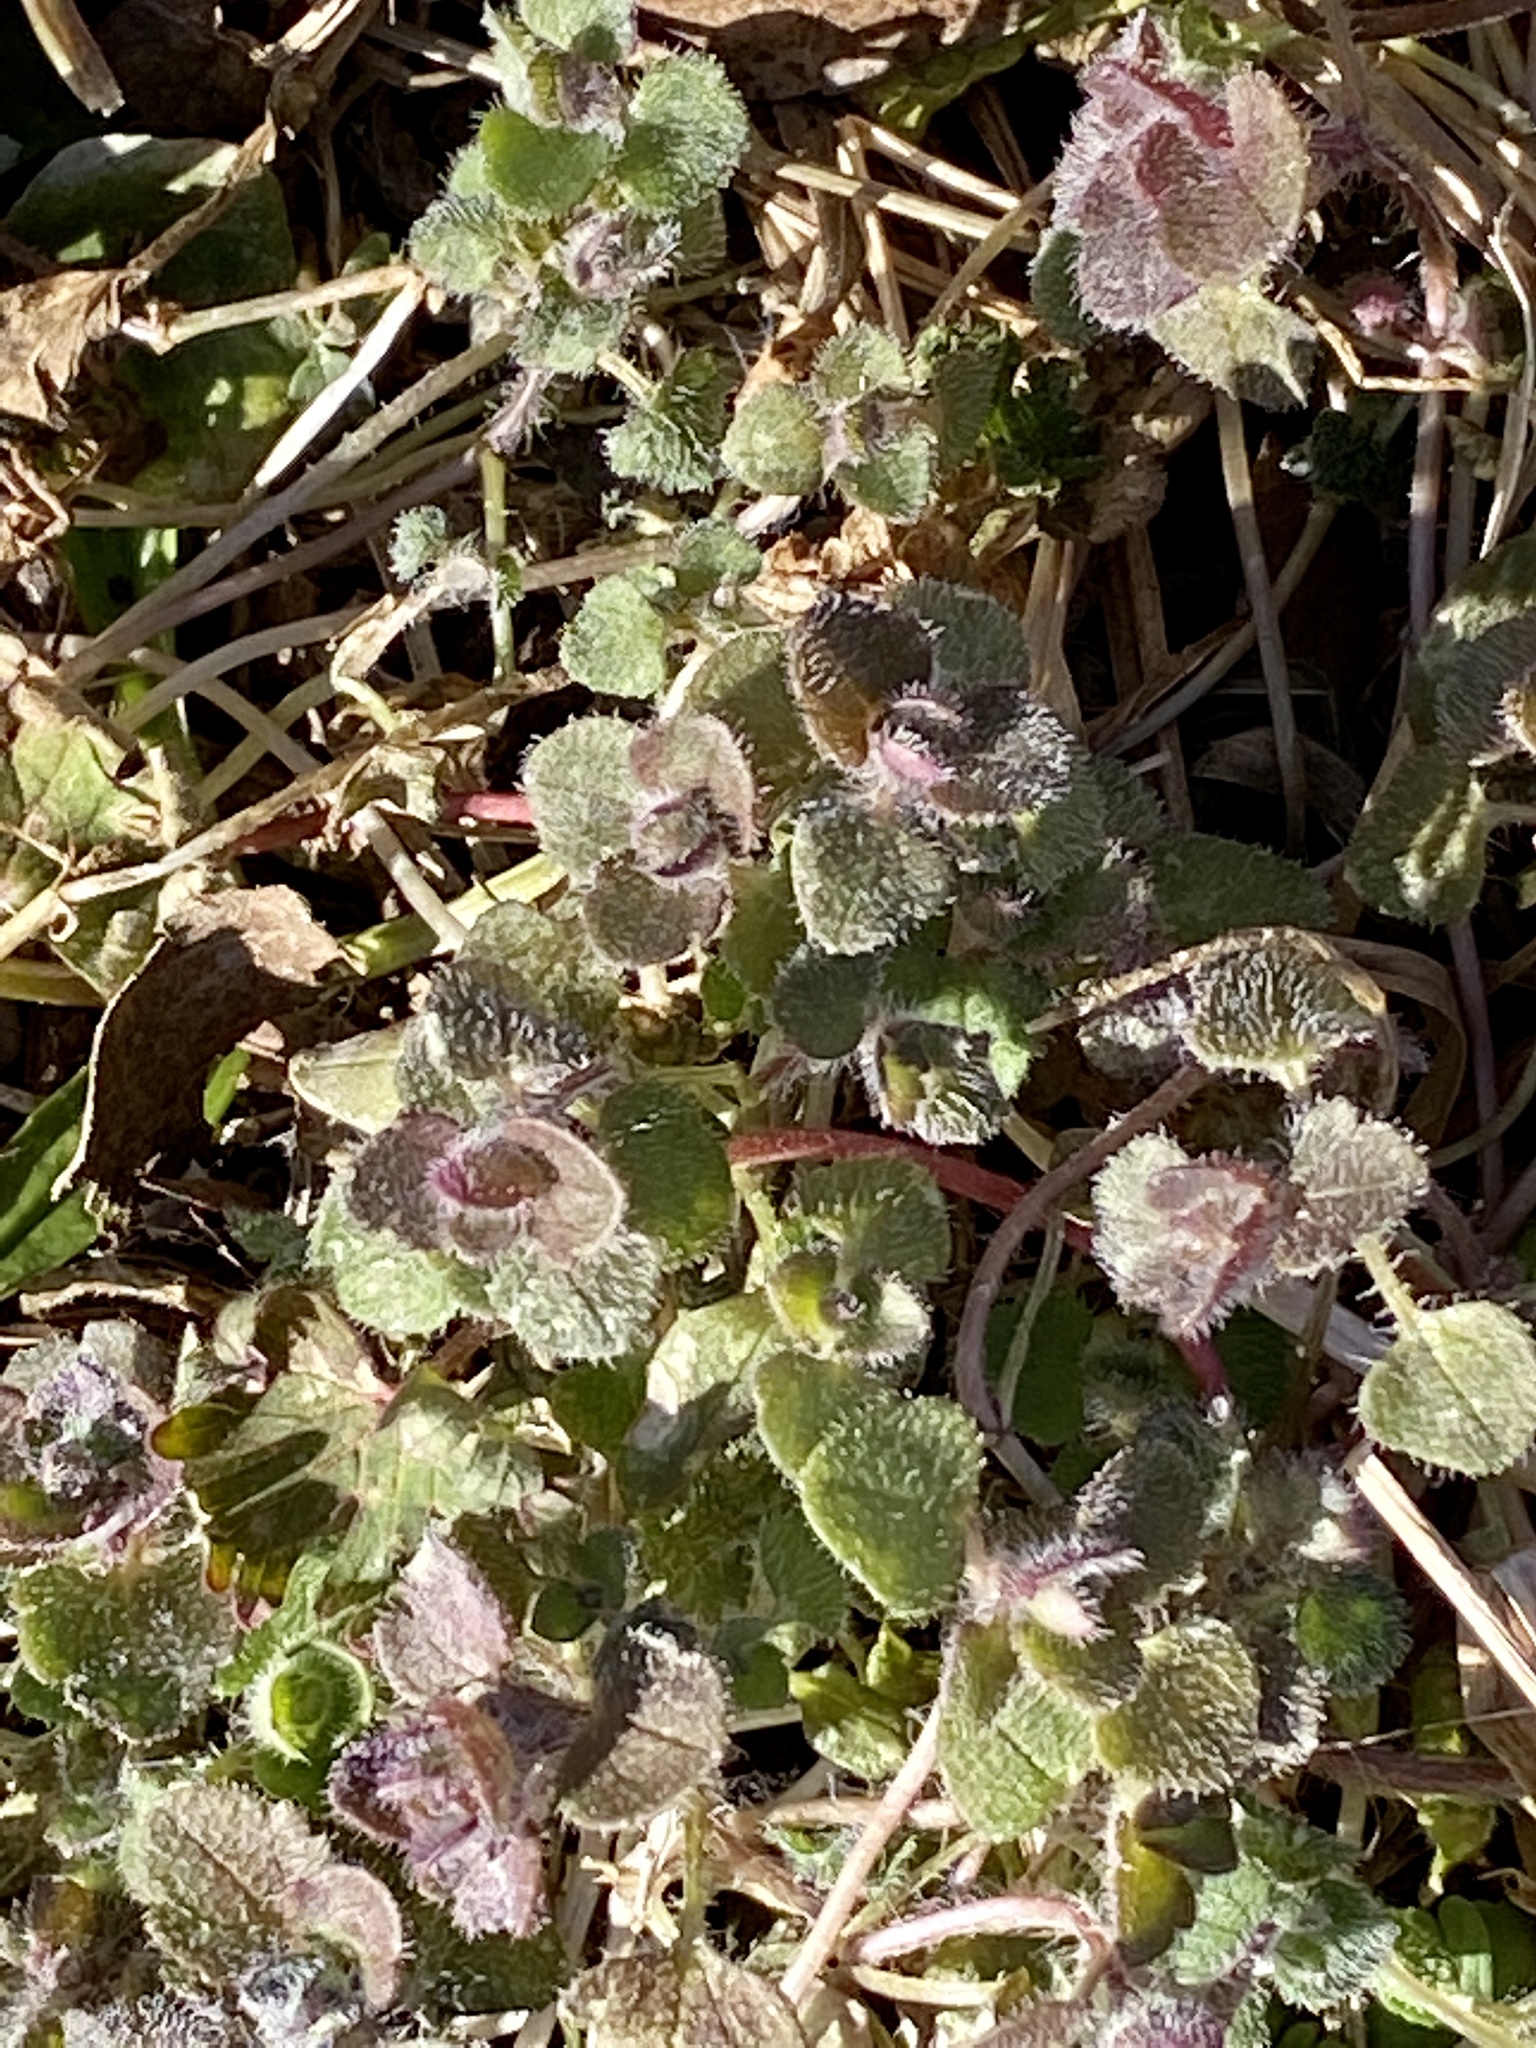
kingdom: Plantae
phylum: Tracheophyta
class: Magnoliopsida
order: Lamiales
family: Plantaginaceae
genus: Veronica
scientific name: Veronica hederifolia
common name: Ivy-leaved speedwell
